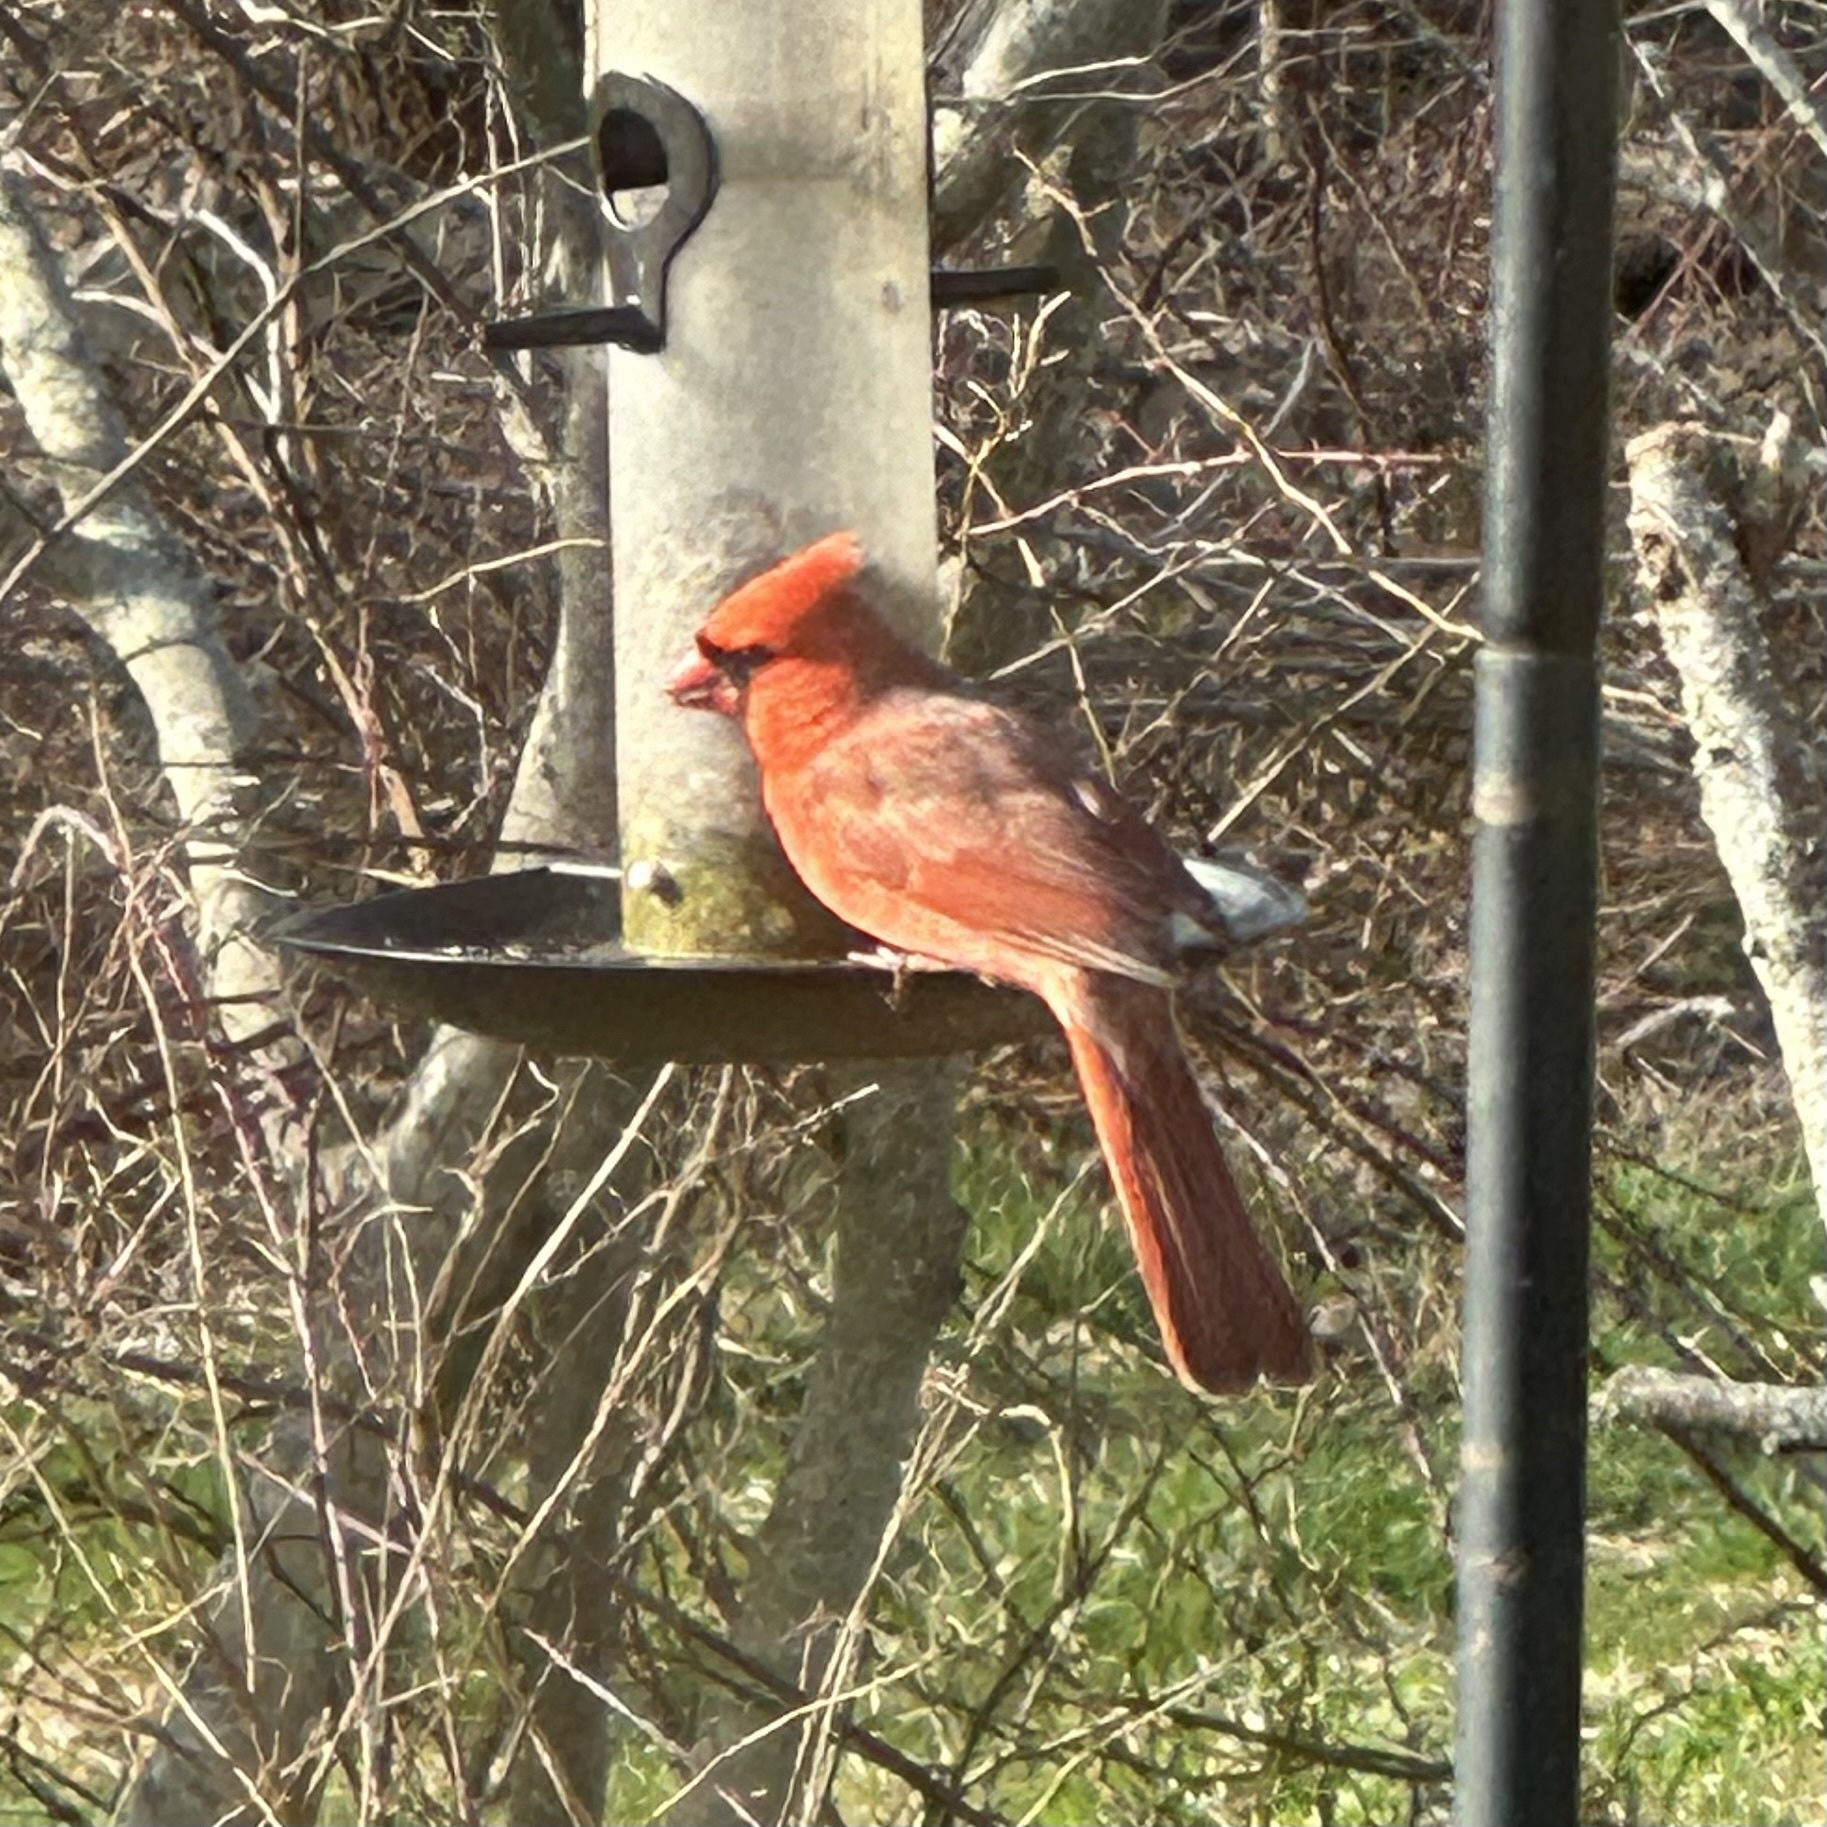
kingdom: Animalia
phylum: Chordata
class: Aves
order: Passeriformes
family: Cardinalidae
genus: Cardinalis
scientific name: Cardinalis cardinalis
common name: Northern cardinal
